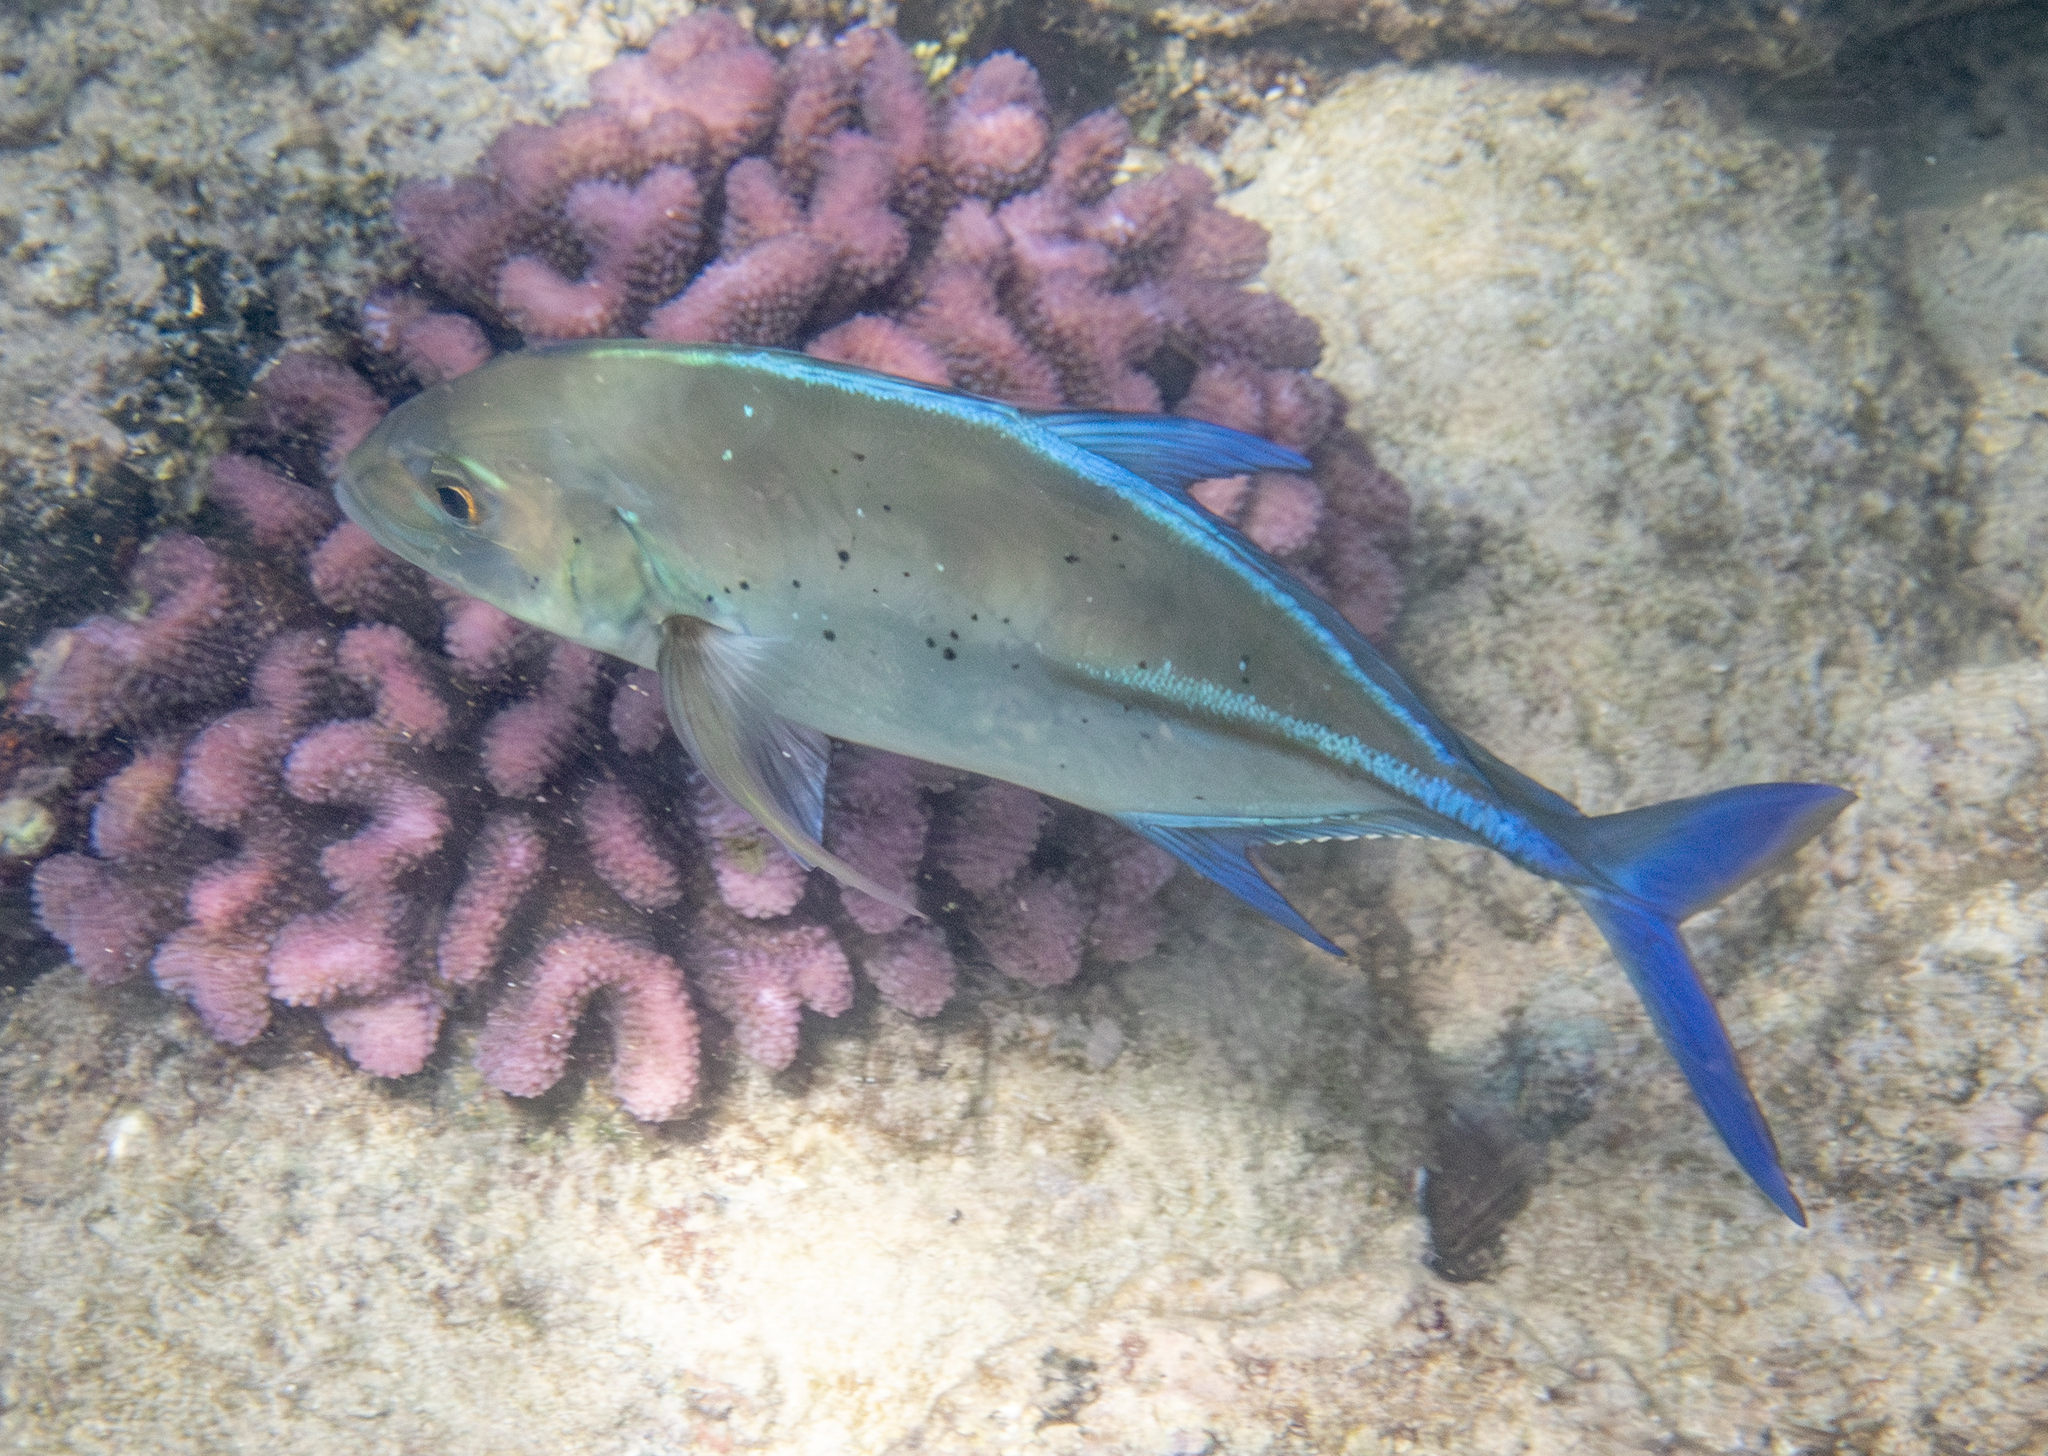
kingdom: Animalia
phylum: Chordata
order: Perciformes
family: Carangidae
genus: Caranx
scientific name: Caranx melampygus
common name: Bluefin trevally
